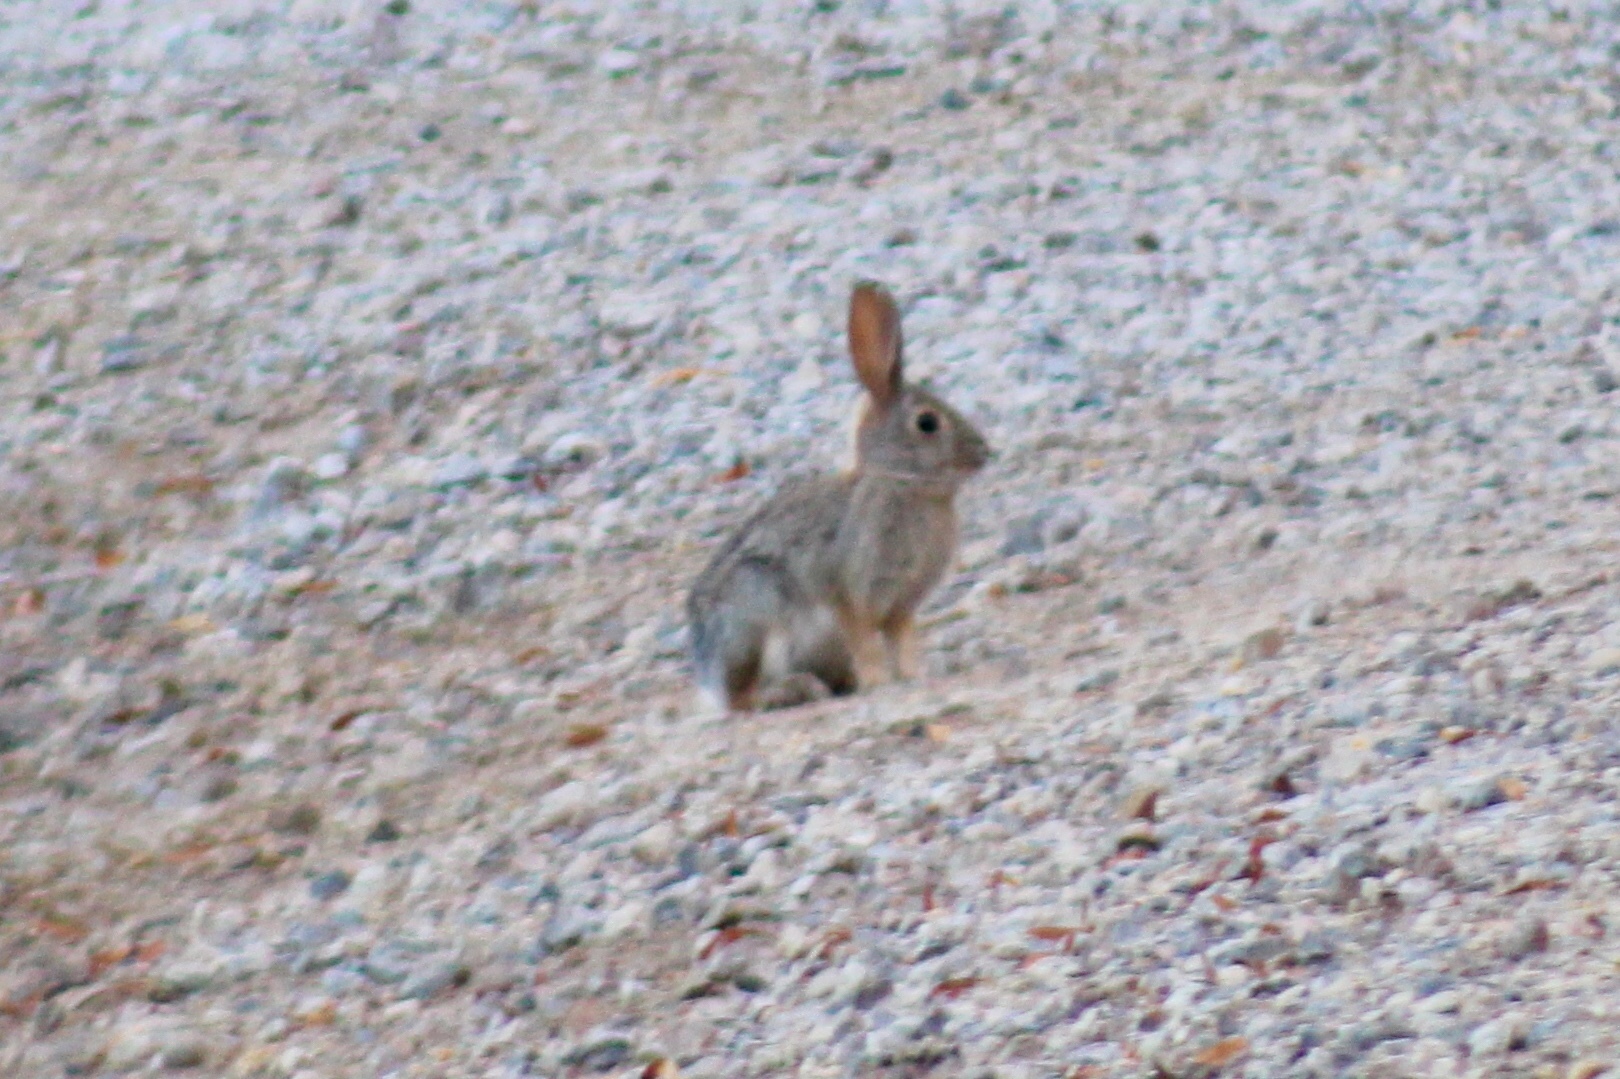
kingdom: Animalia
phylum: Chordata
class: Mammalia
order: Lagomorpha
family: Leporidae
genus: Sylvilagus
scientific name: Sylvilagus audubonii
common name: Desert cottontail
